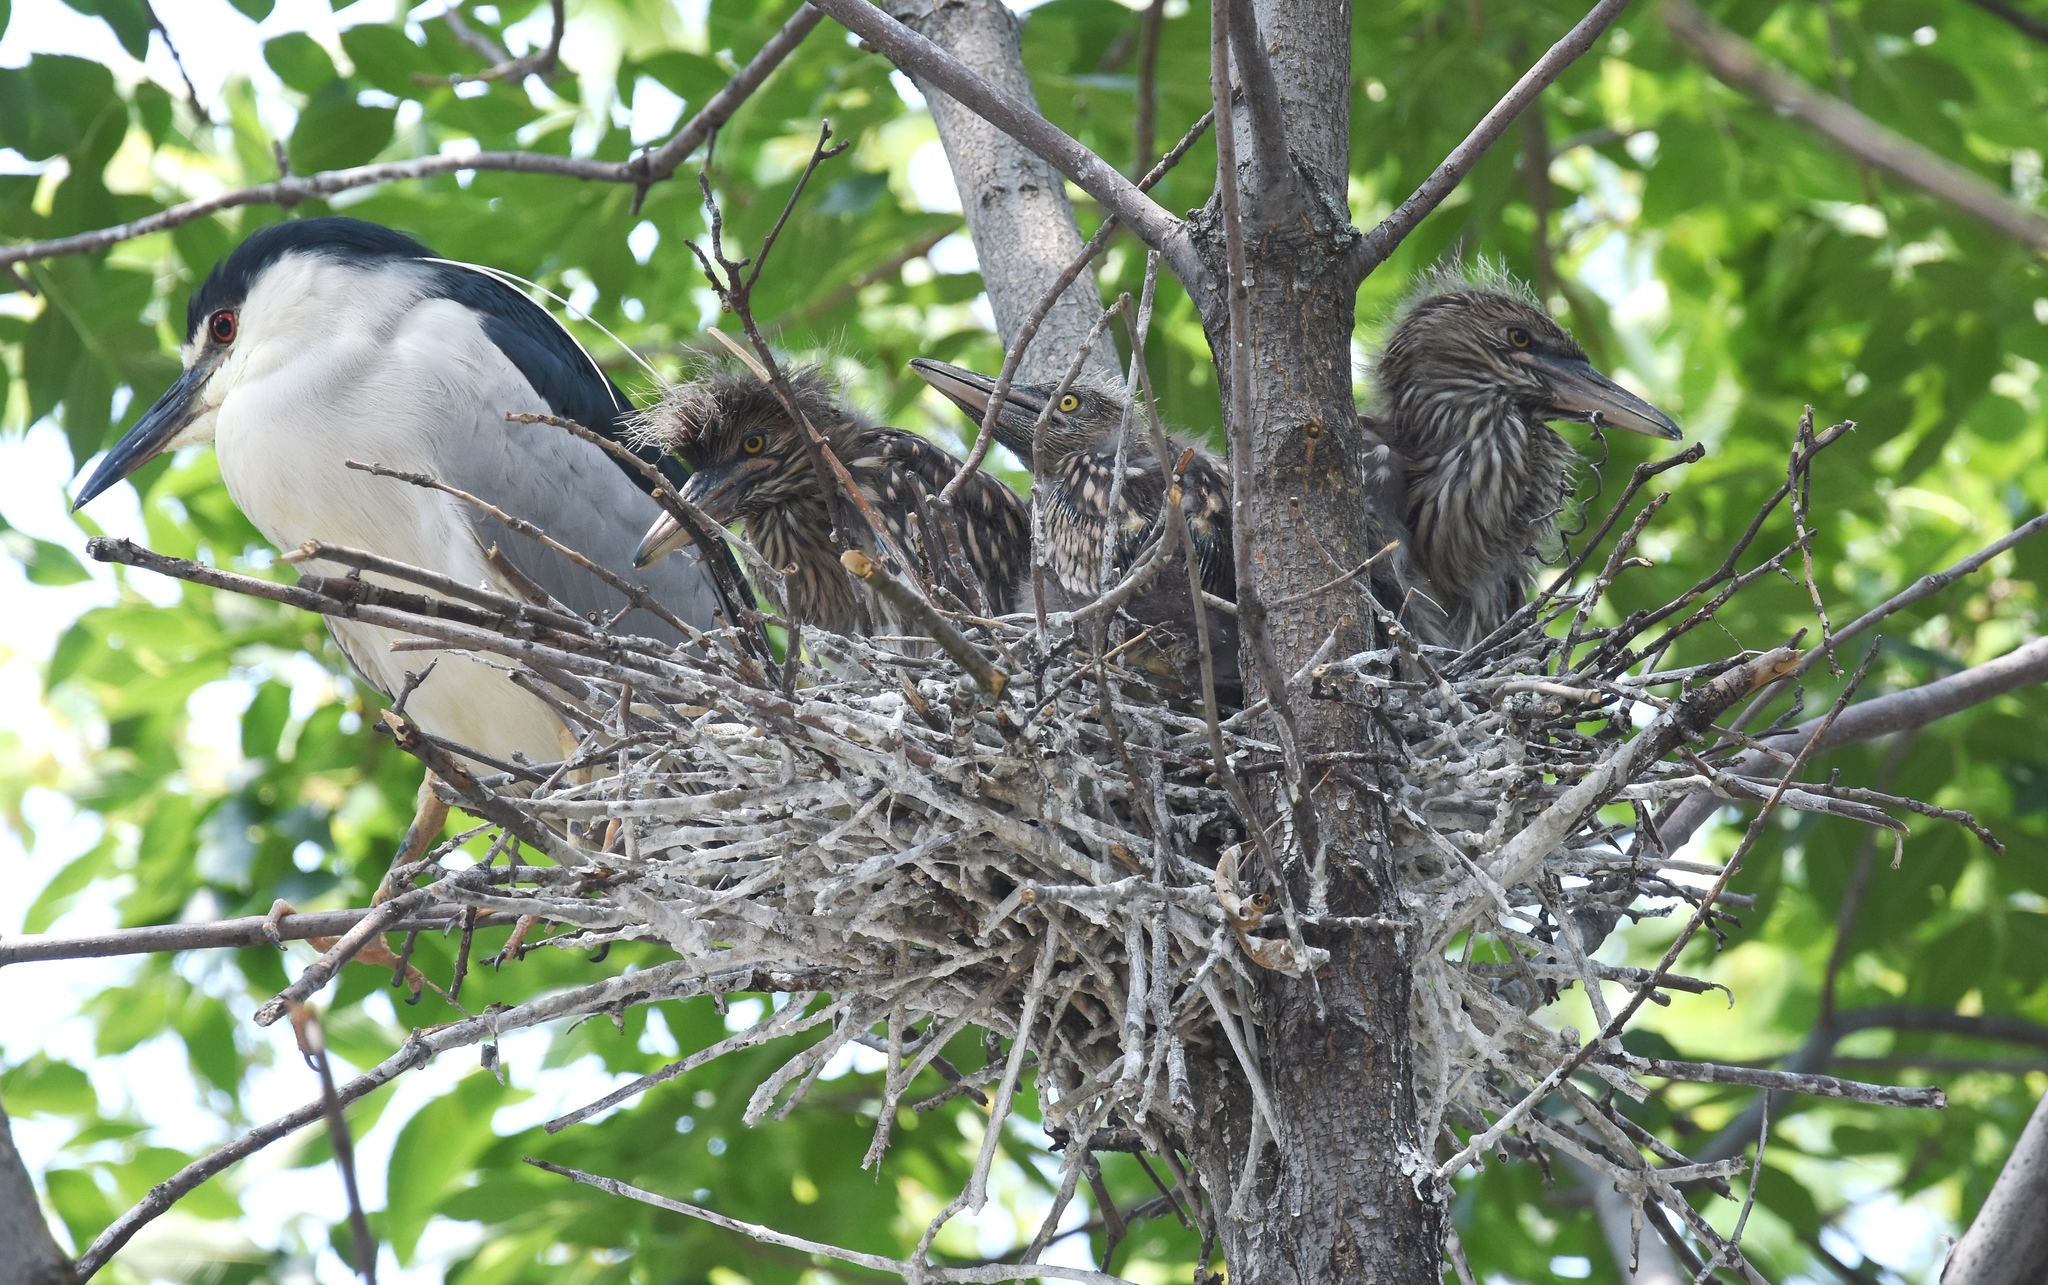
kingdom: Animalia
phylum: Chordata
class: Aves
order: Pelecaniformes
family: Ardeidae
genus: Nycticorax
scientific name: Nycticorax nycticorax
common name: Black-crowned night heron
